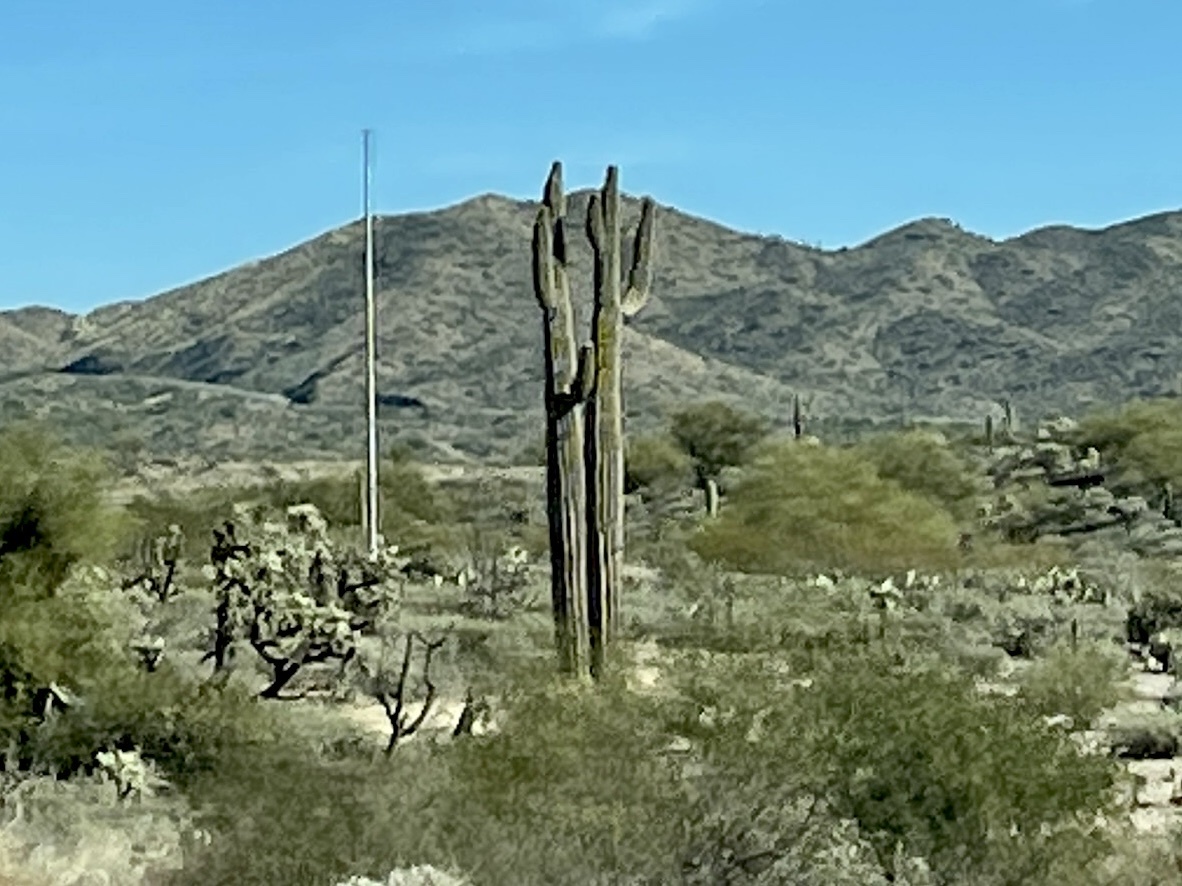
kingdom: Plantae
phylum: Tracheophyta
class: Magnoliopsida
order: Caryophyllales
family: Cactaceae
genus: Carnegiea
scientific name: Carnegiea gigantea
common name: Saguaro
